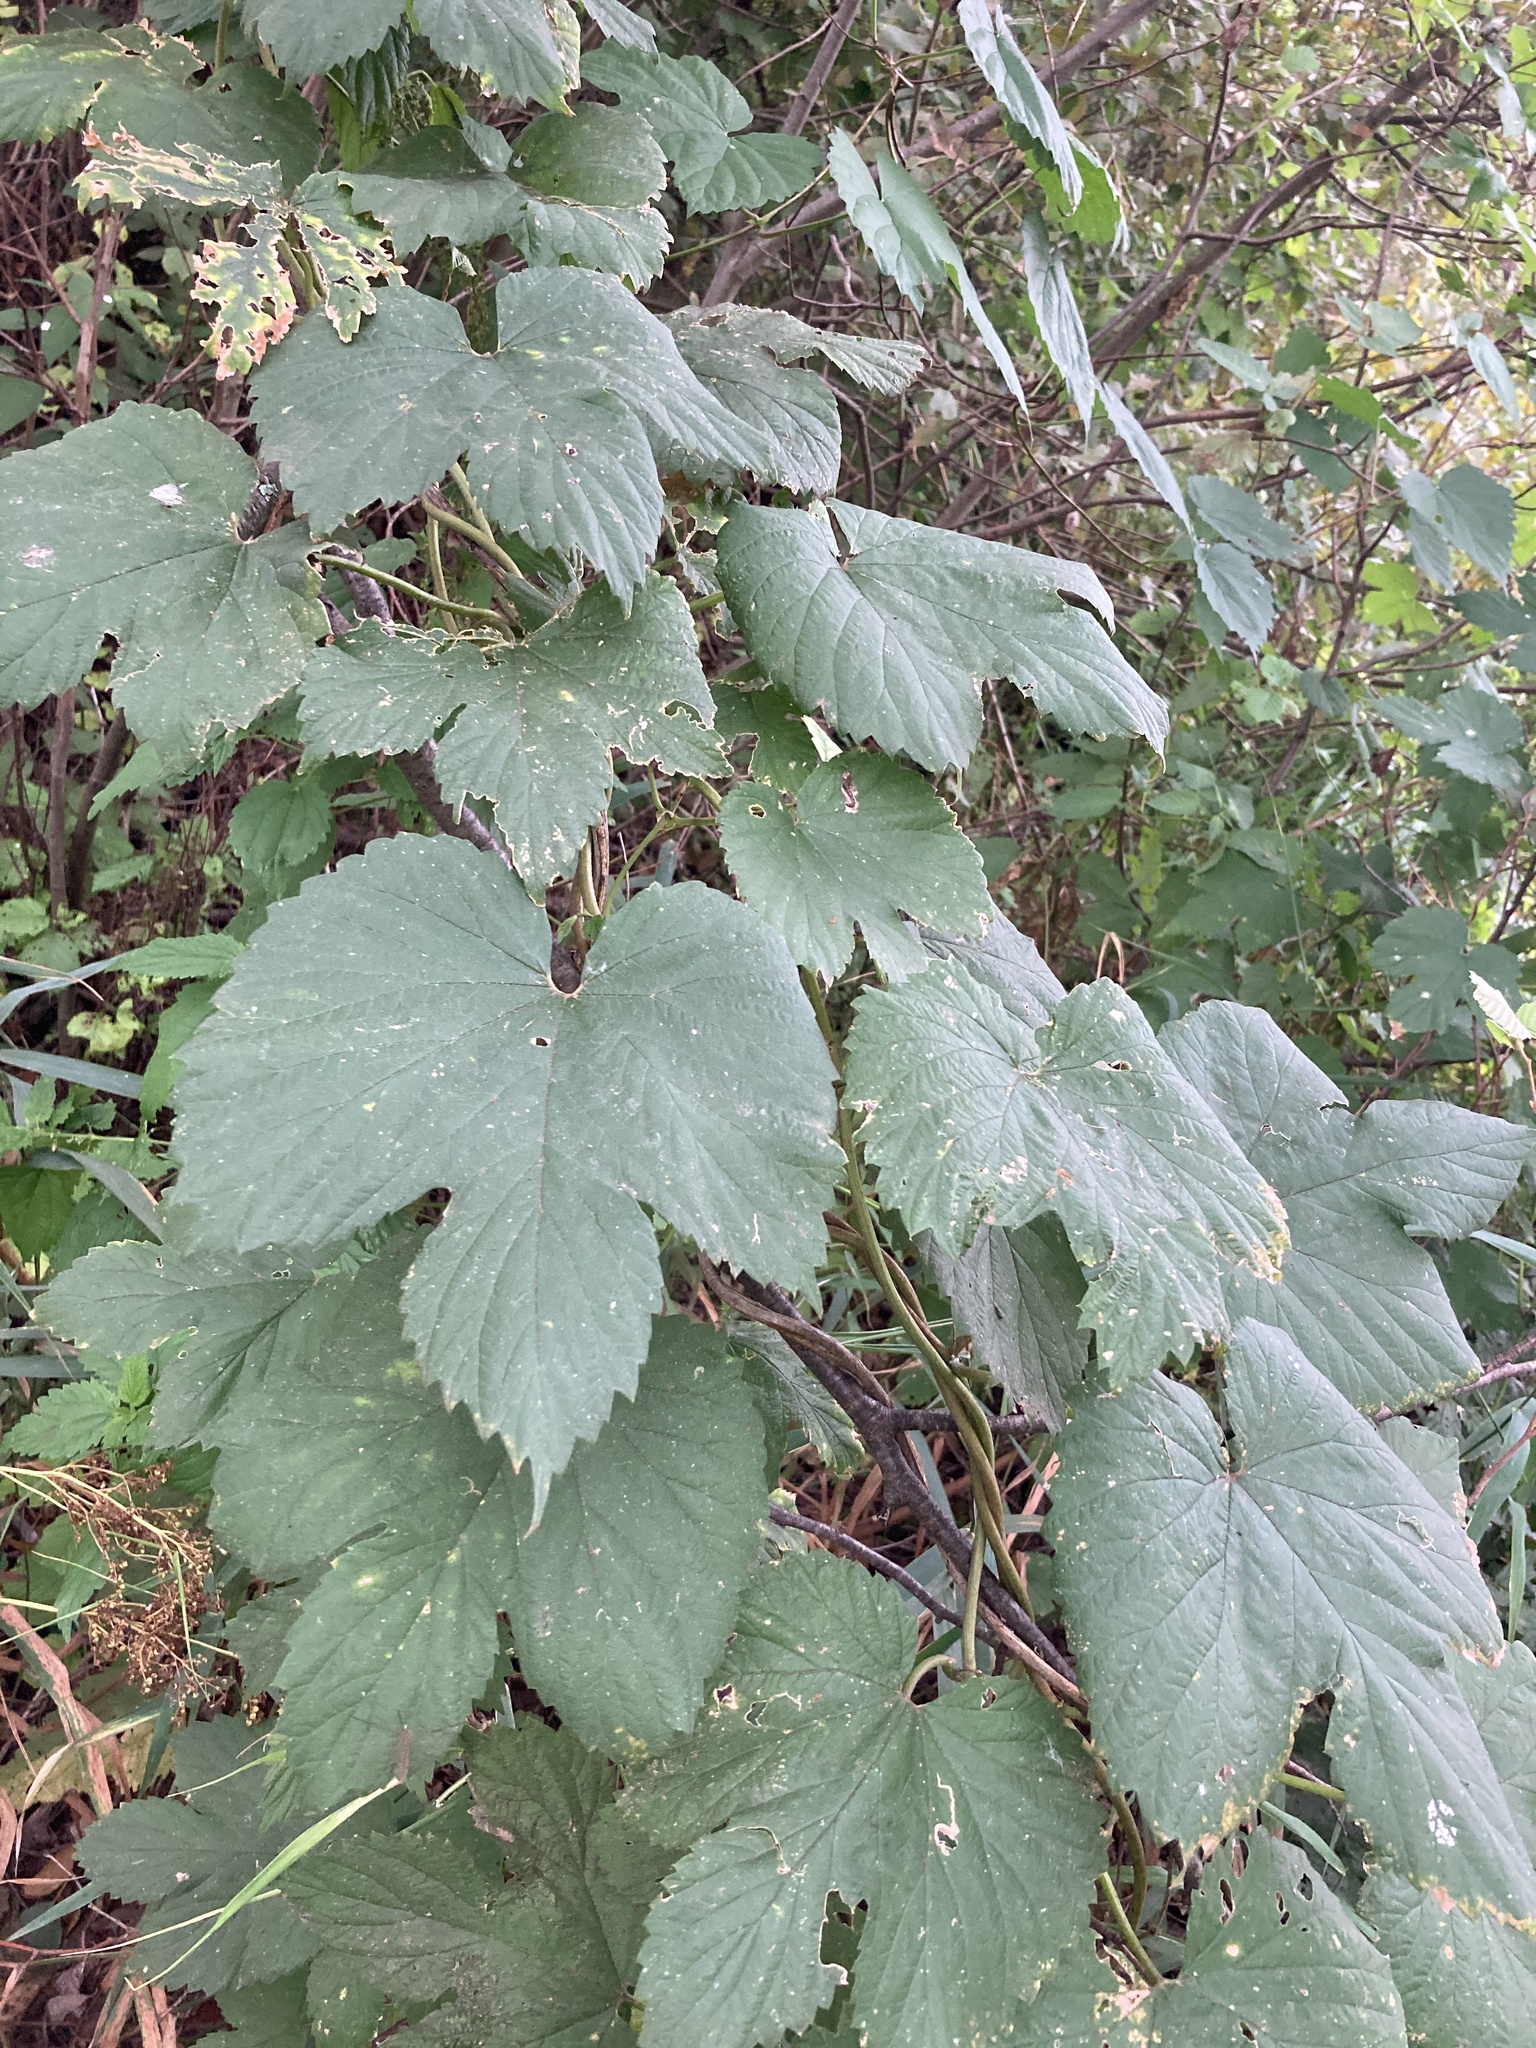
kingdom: Plantae
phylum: Tracheophyta
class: Magnoliopsida
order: Rosales
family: Cannabaceae
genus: Humulus
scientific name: Humulus lupulus
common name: Hop
